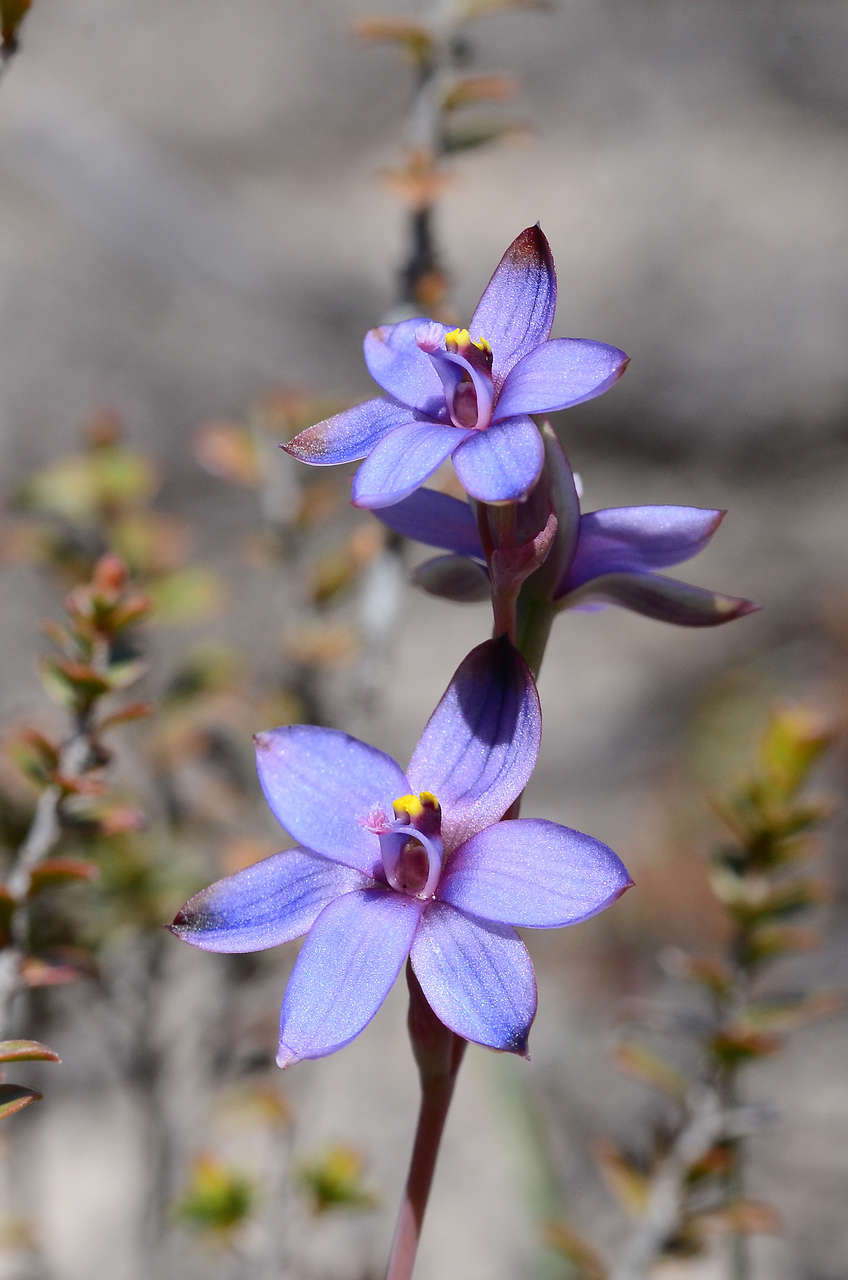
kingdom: Plantae
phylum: Tracheophyta
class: Liliopsida
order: Asparagales
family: Orchidaceae
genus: Thelymitra
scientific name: Thelymitra azurea
